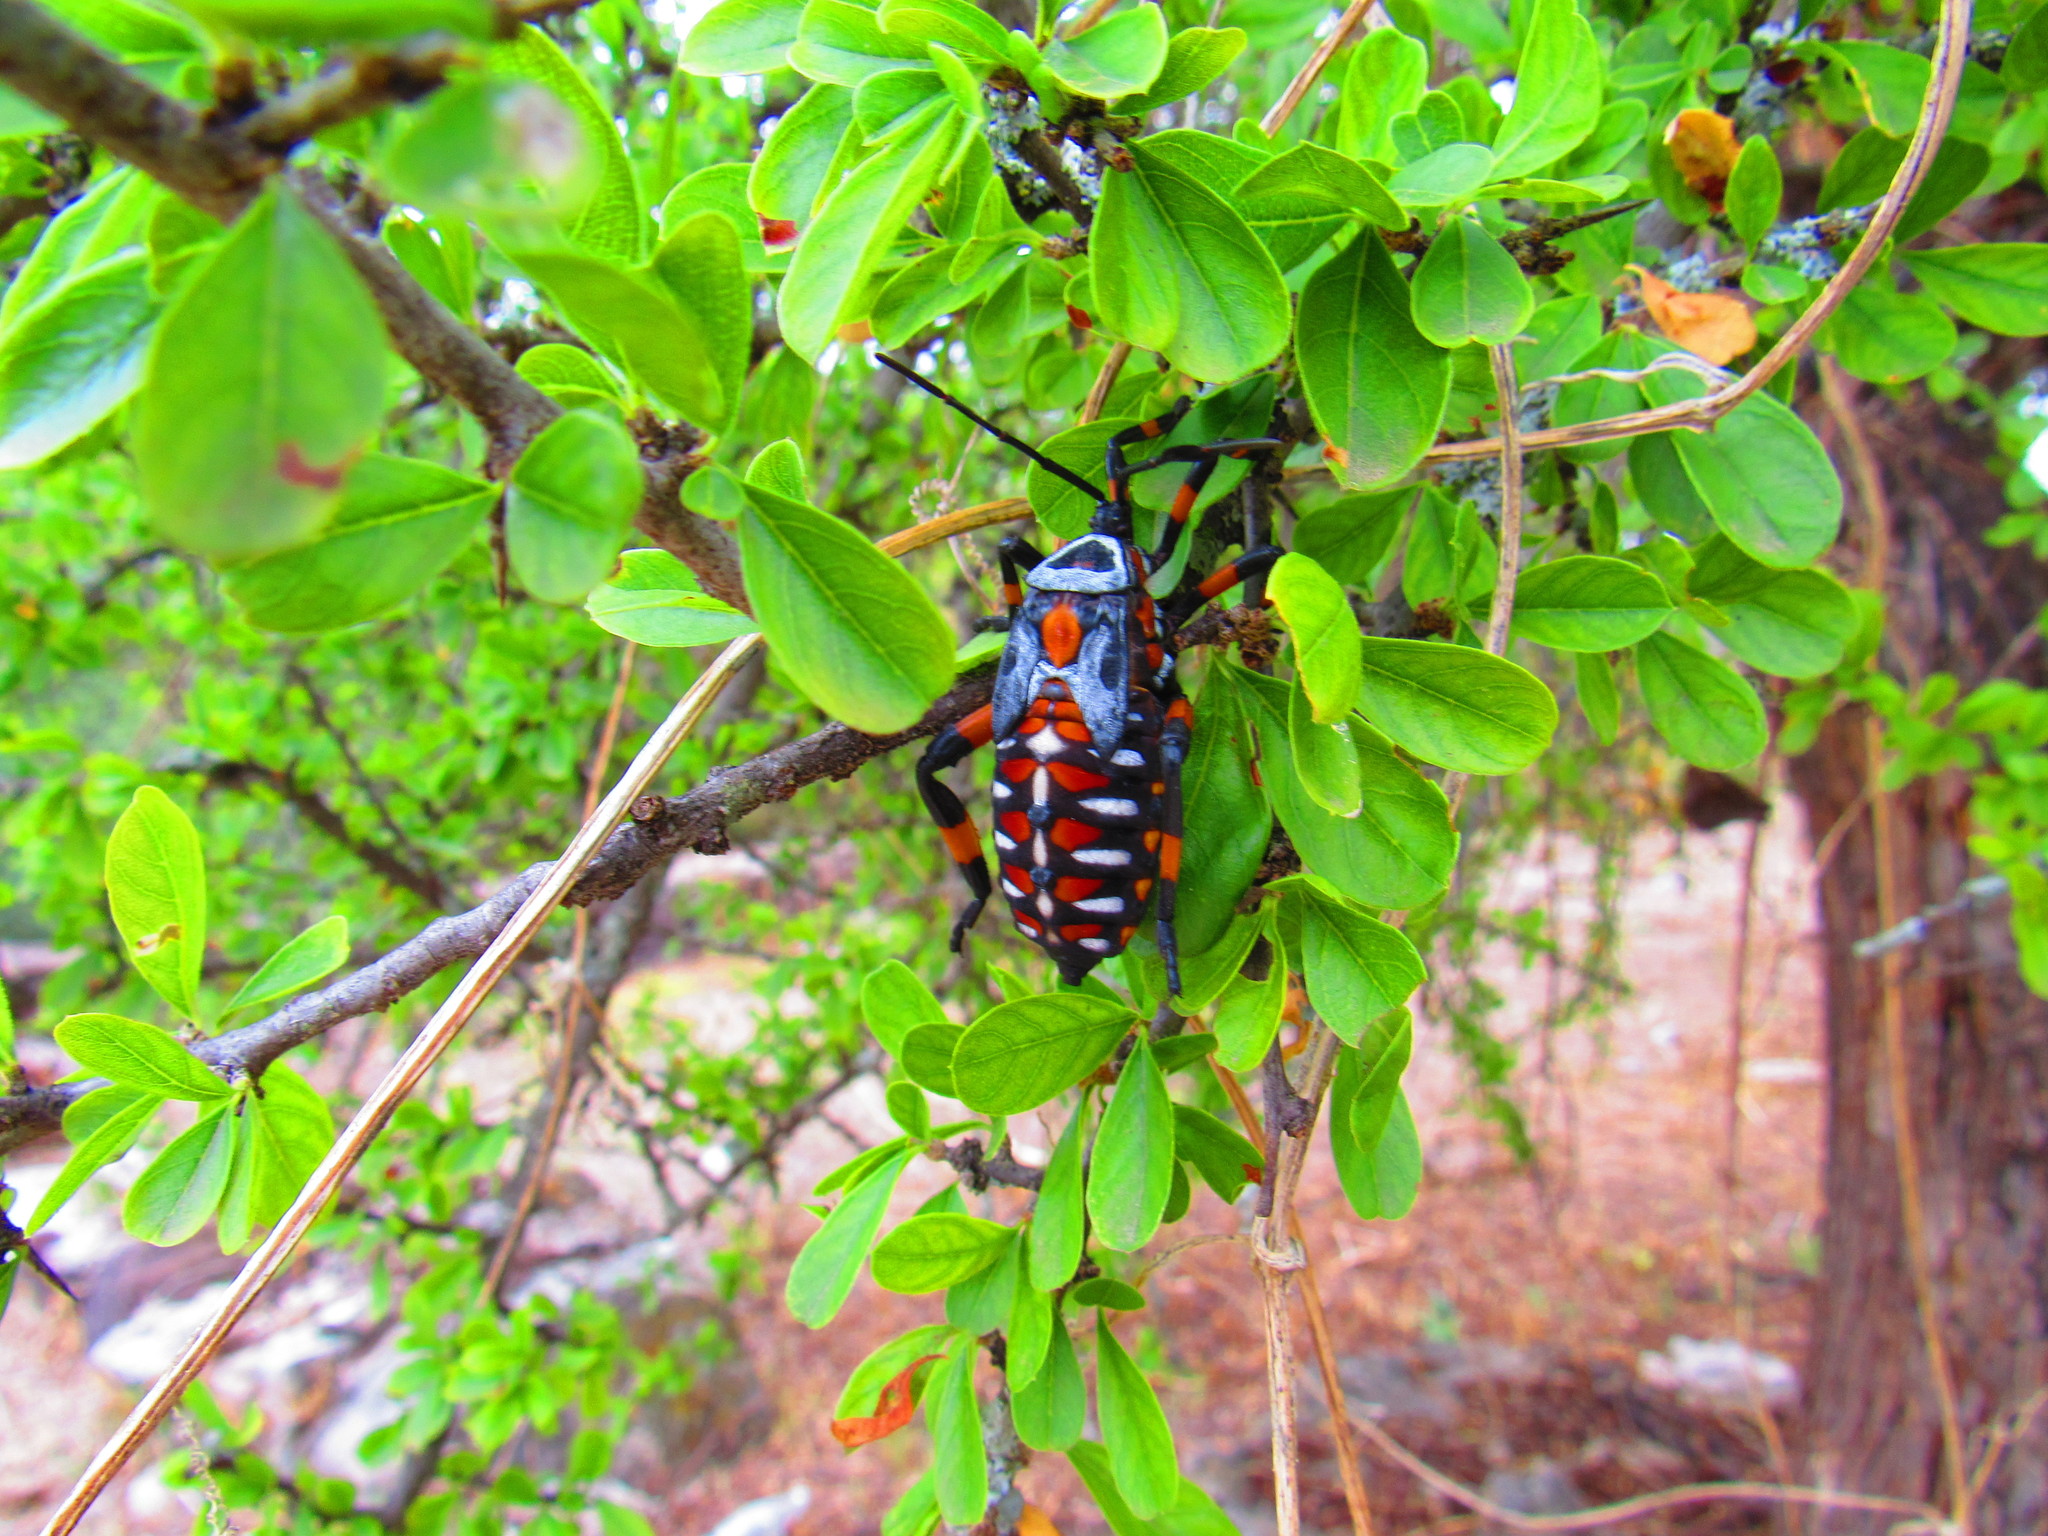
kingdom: Animalia
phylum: Arthropoda
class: Insecta
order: Hemiptera
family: Coreidae
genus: Thasus
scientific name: Thasus
